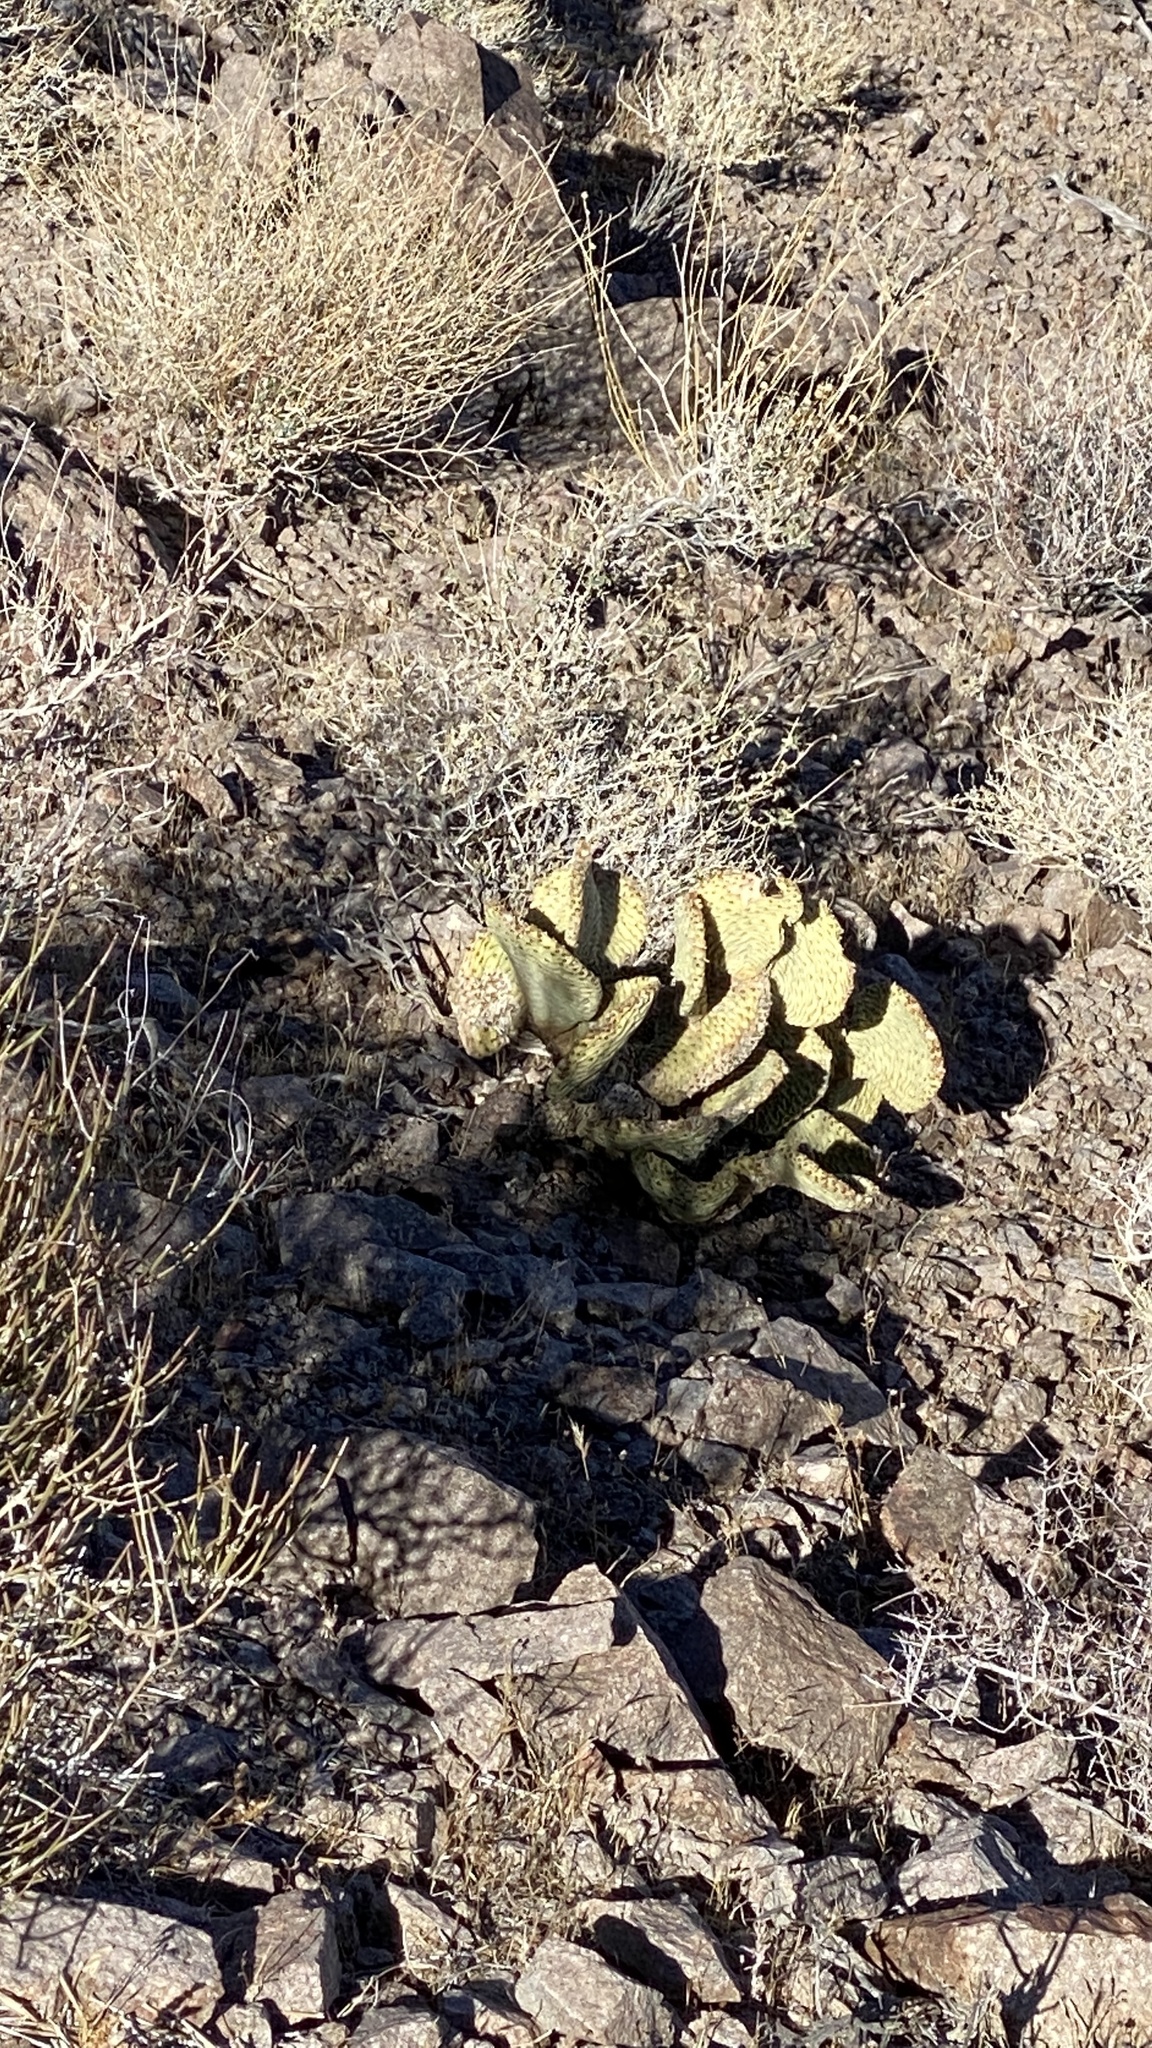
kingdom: Plantae
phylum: Tracheophyta
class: Magnoliopsida
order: Caryophyllales
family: Cactaceae
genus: Opuntia
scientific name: Opuntia basilaris
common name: Beavertail prickly-pear
